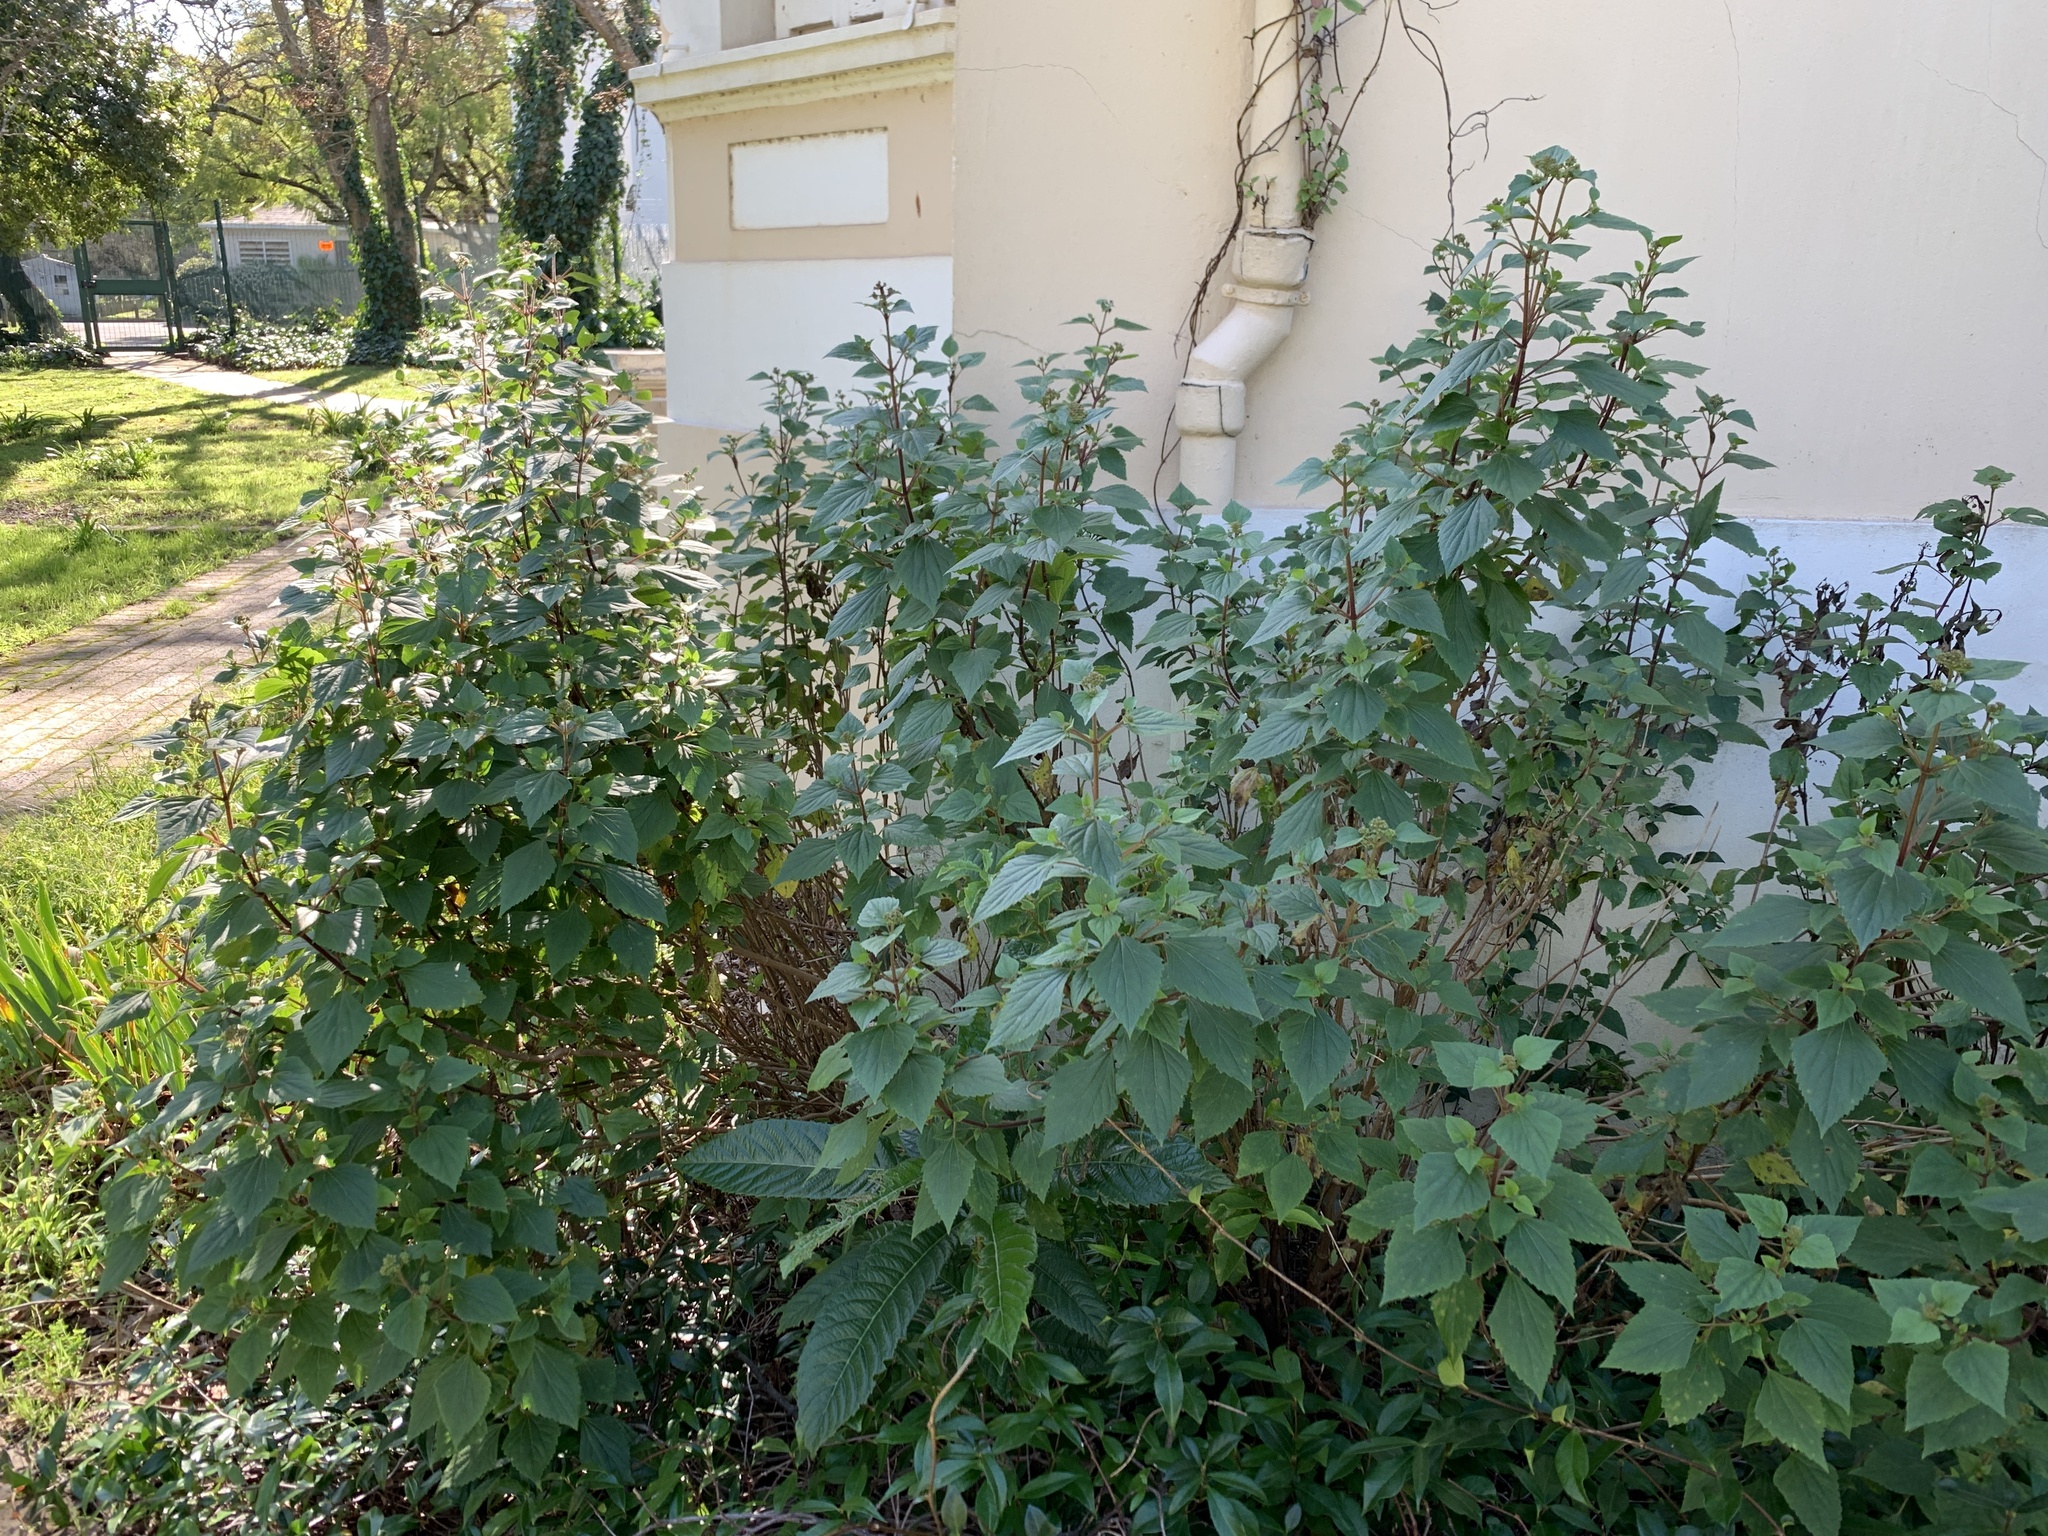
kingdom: Plantae
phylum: Tracheophyta
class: Magnoliopsida
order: Asterales
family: Asteraceae
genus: Ageratina
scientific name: Ageratina adenophora
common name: Sticky snakeroot
